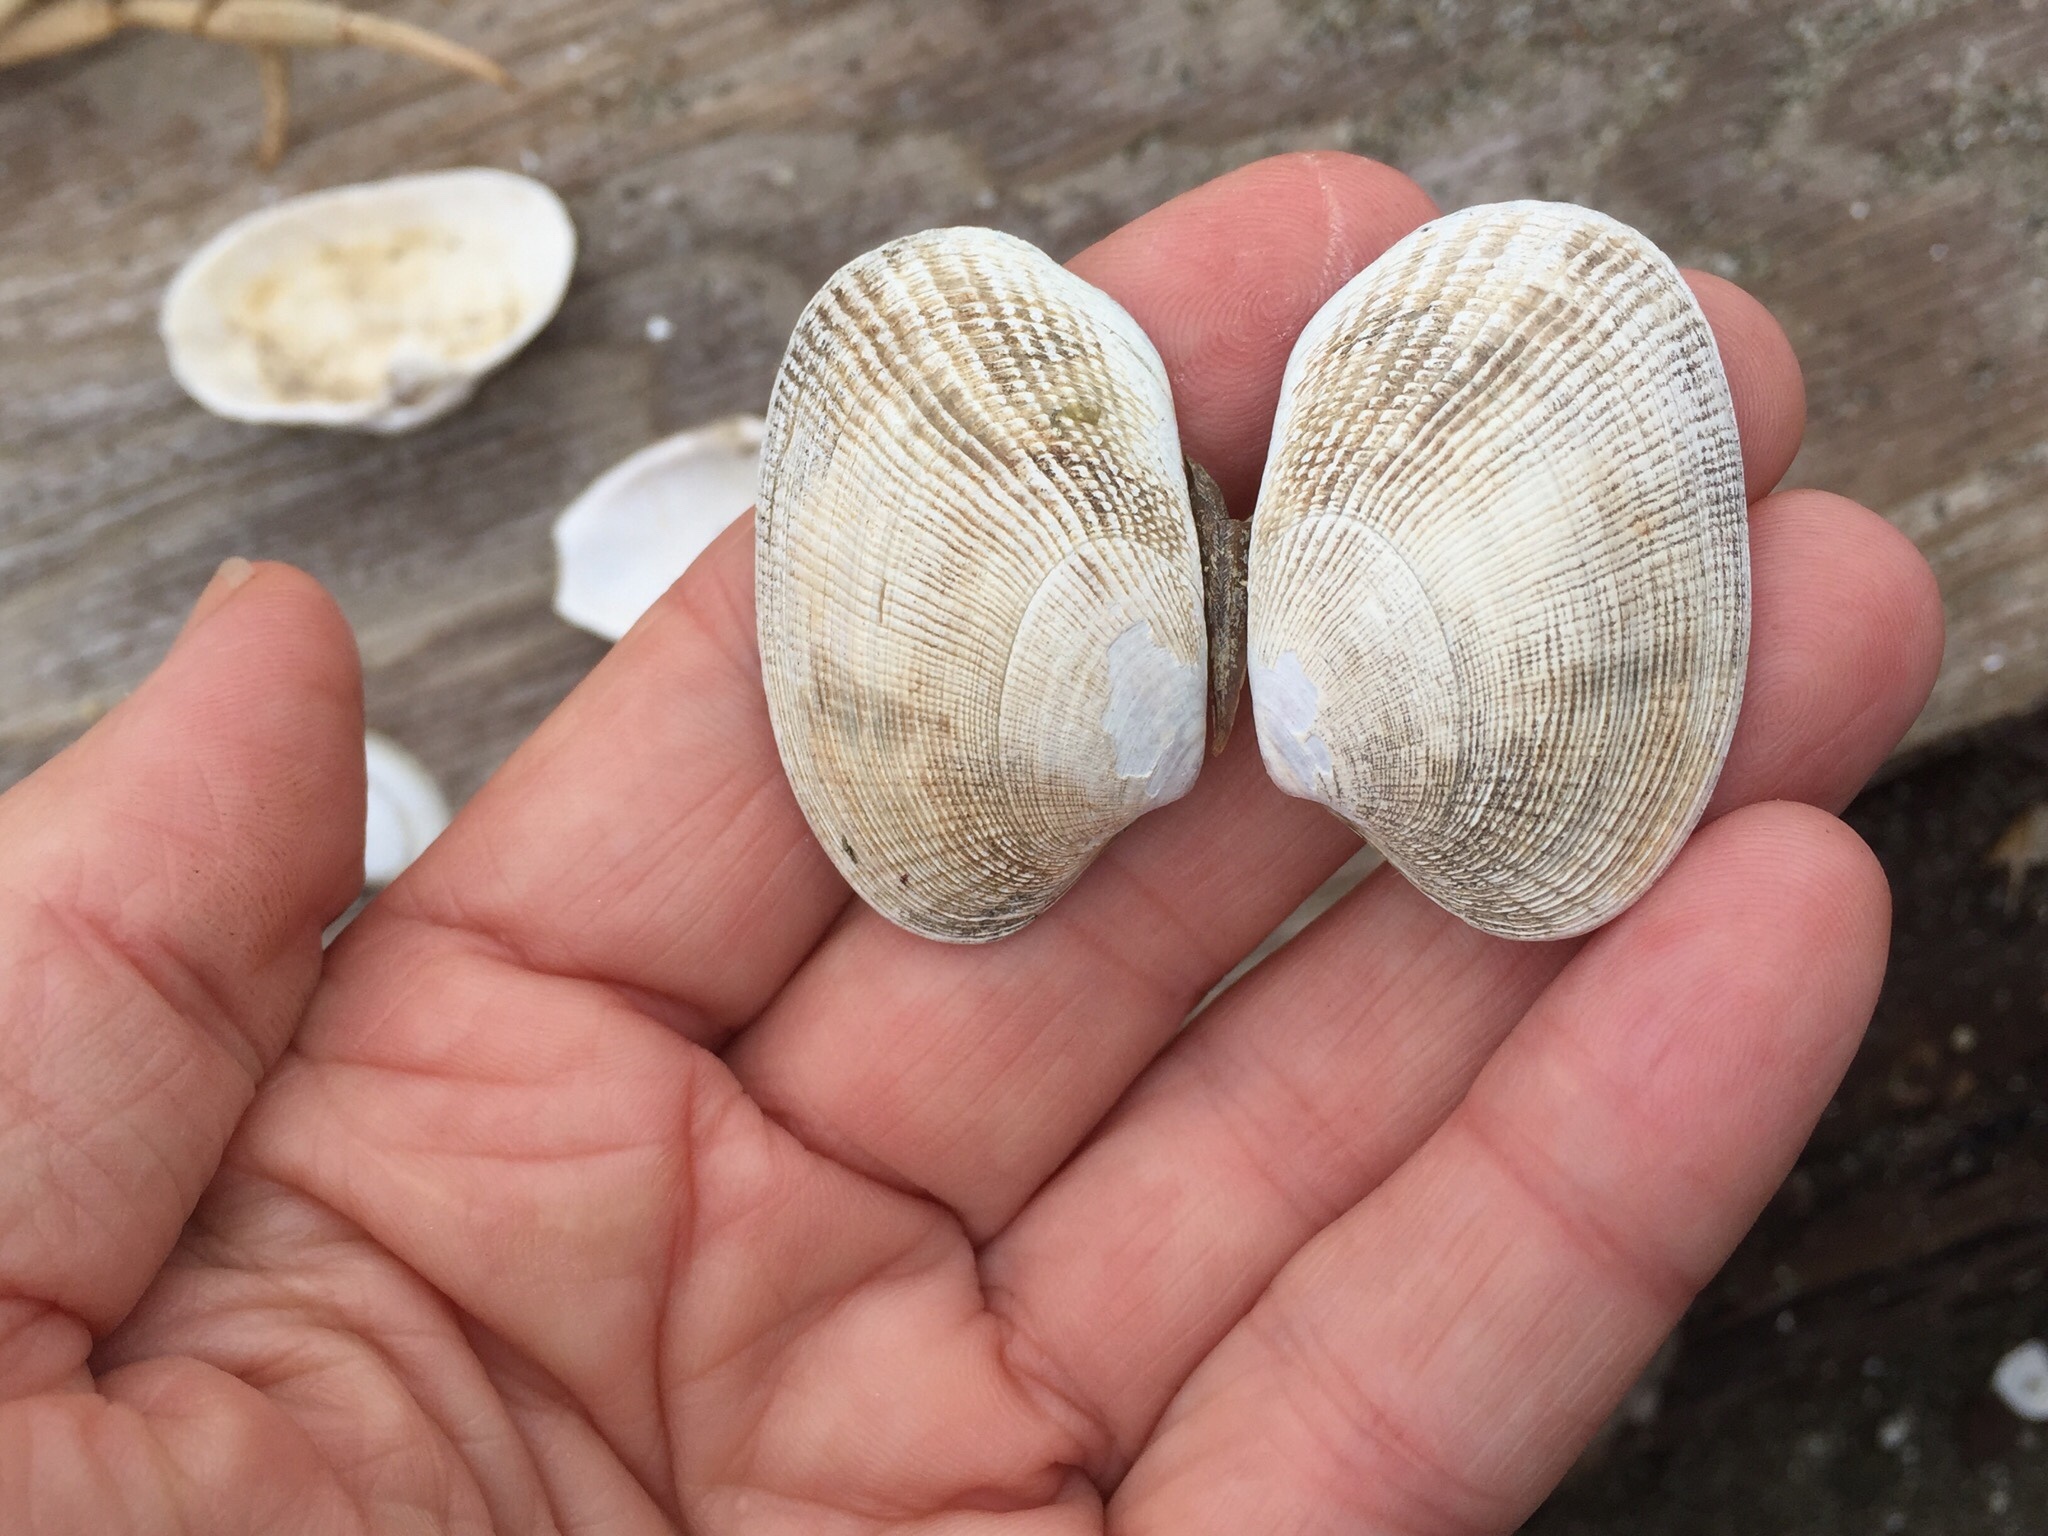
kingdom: Animalia
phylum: Mollusca
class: Bivalvia
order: Venerida
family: Veneridae
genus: Ruditapes
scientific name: Ruditapes philippinarum
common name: Manila clam
